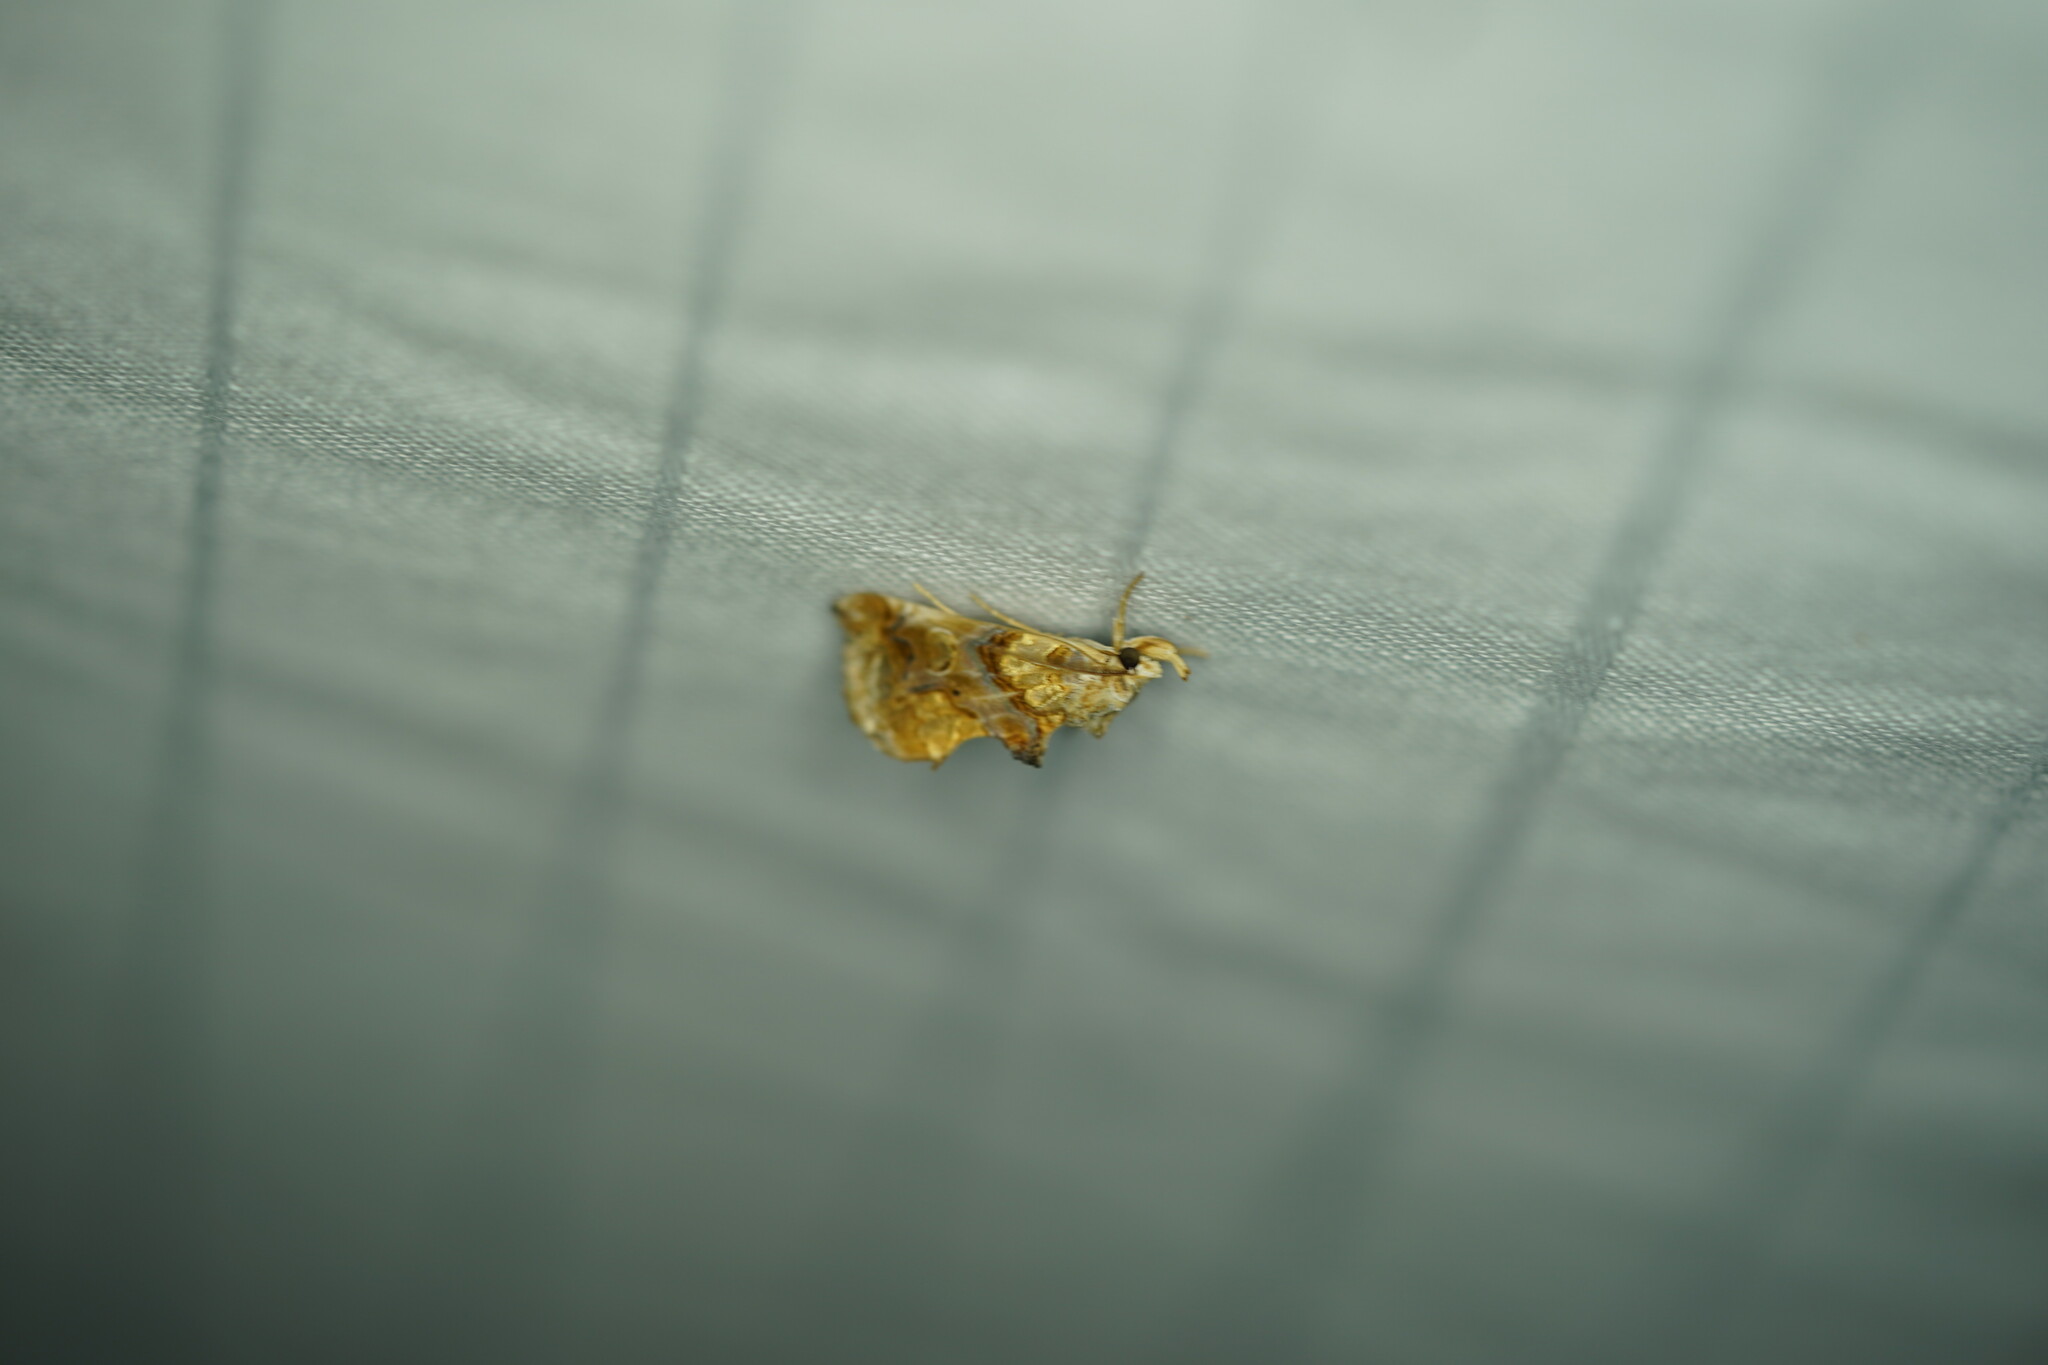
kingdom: Animalia
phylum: Arthropoda
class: Insecta
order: Lepidoptera
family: Erebidae
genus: Plusiodonta
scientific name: Plusiodonta compressipalpis
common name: Moonseed moth
